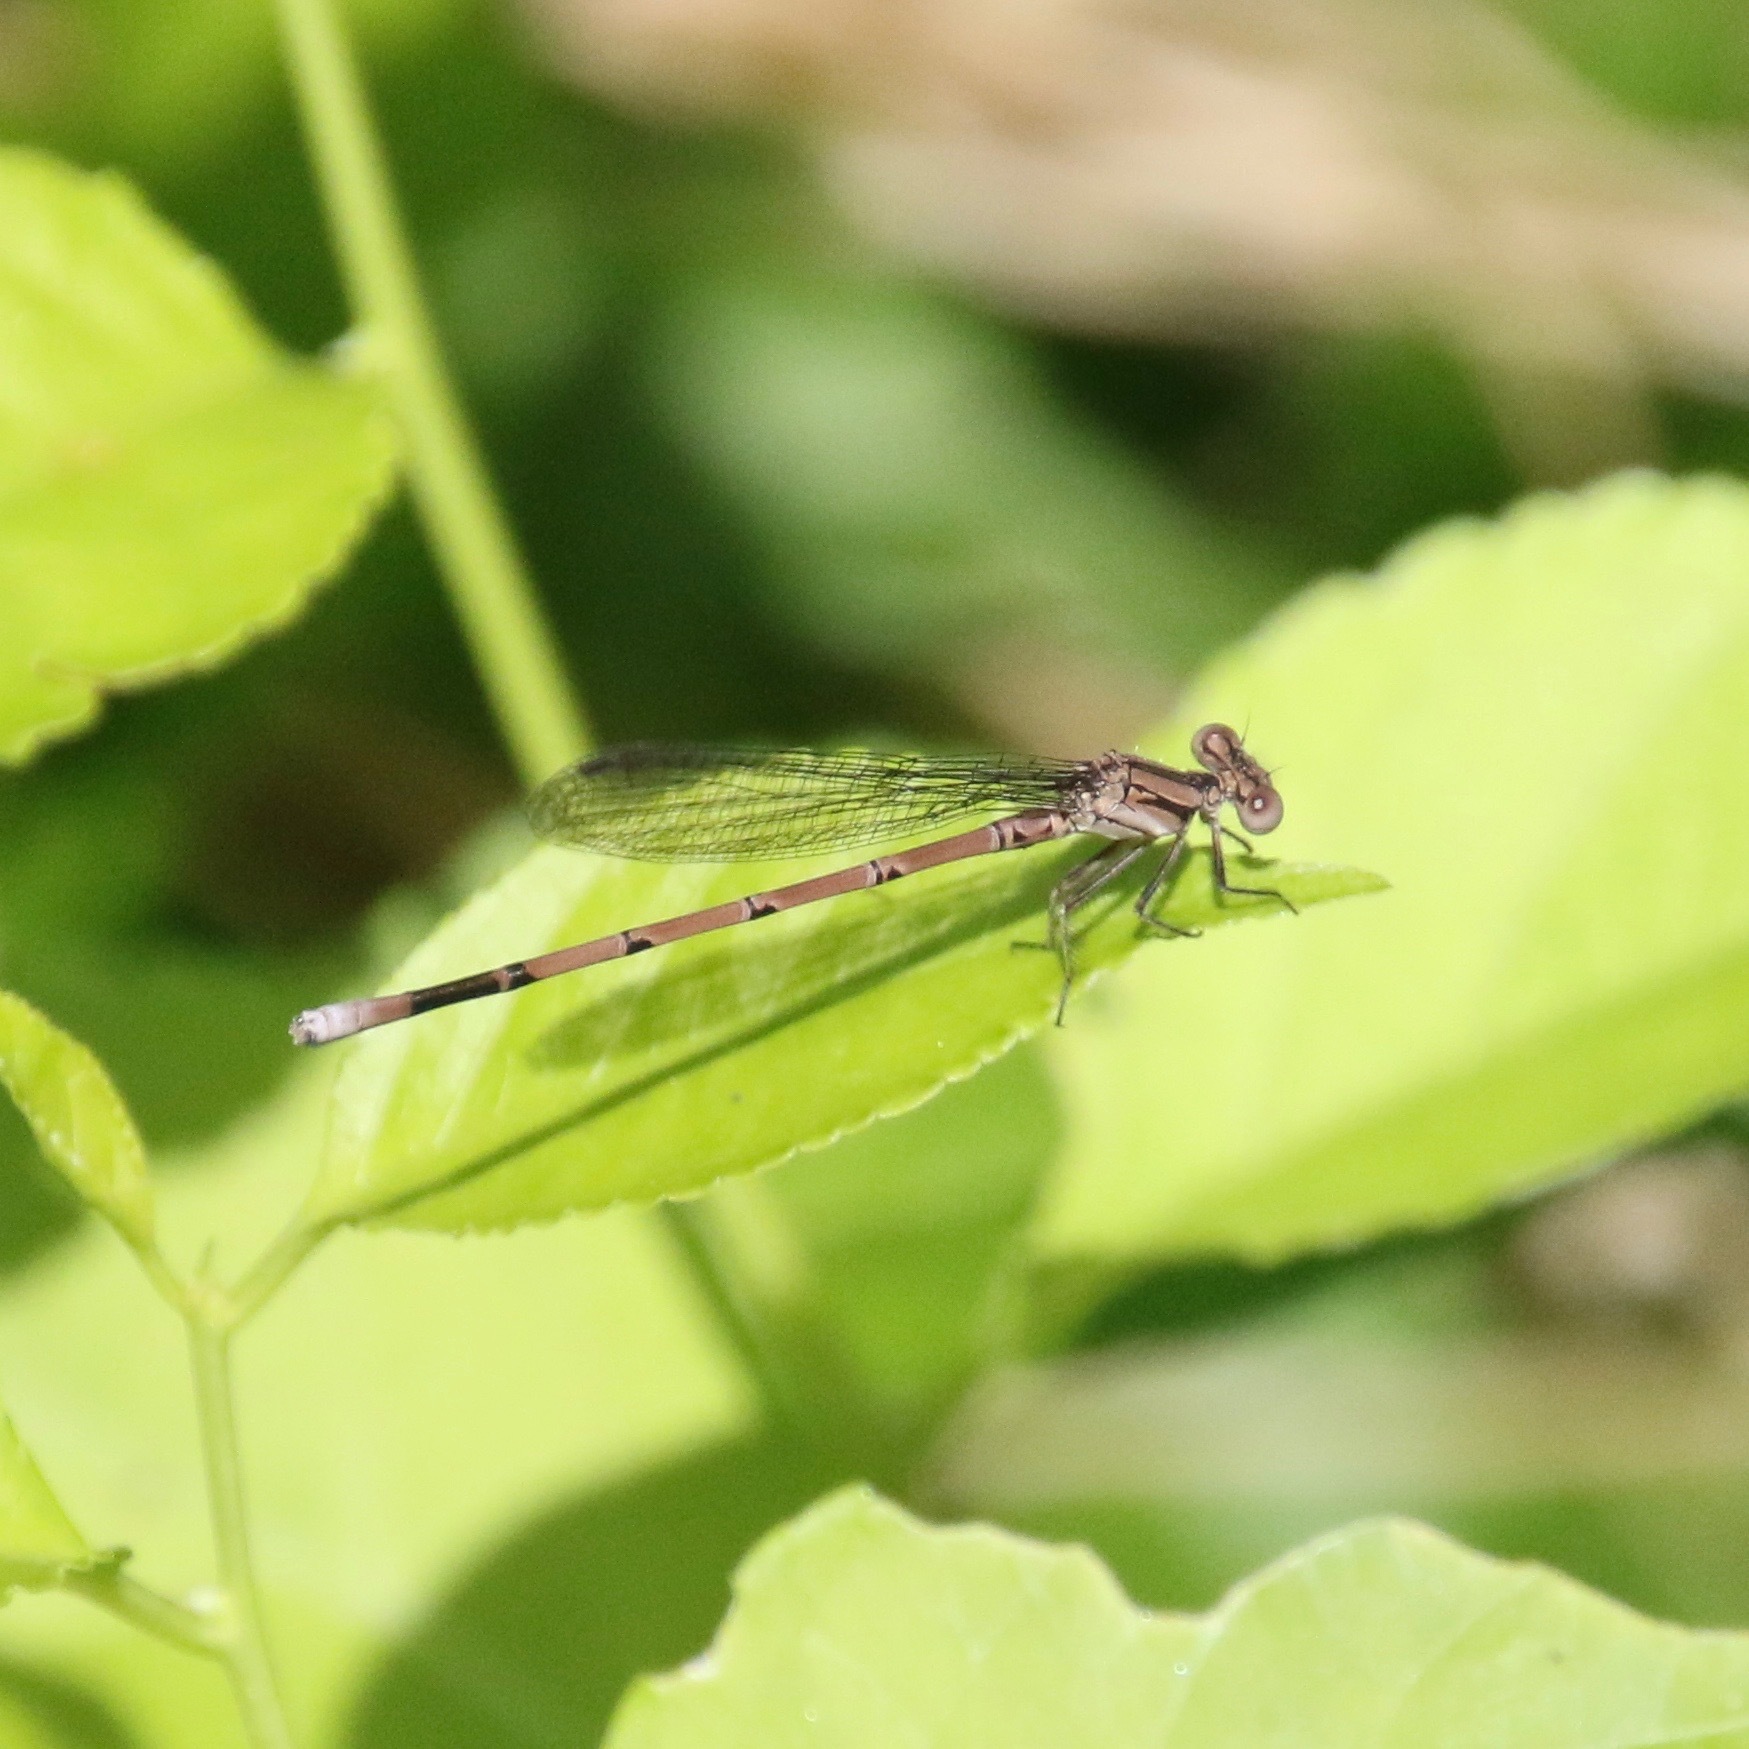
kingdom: Animalia
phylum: Arthropoda
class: Insecta
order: Odonata
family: Coenagrionidae
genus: Argia
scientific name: Argia fumipennis
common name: Variable dancer
